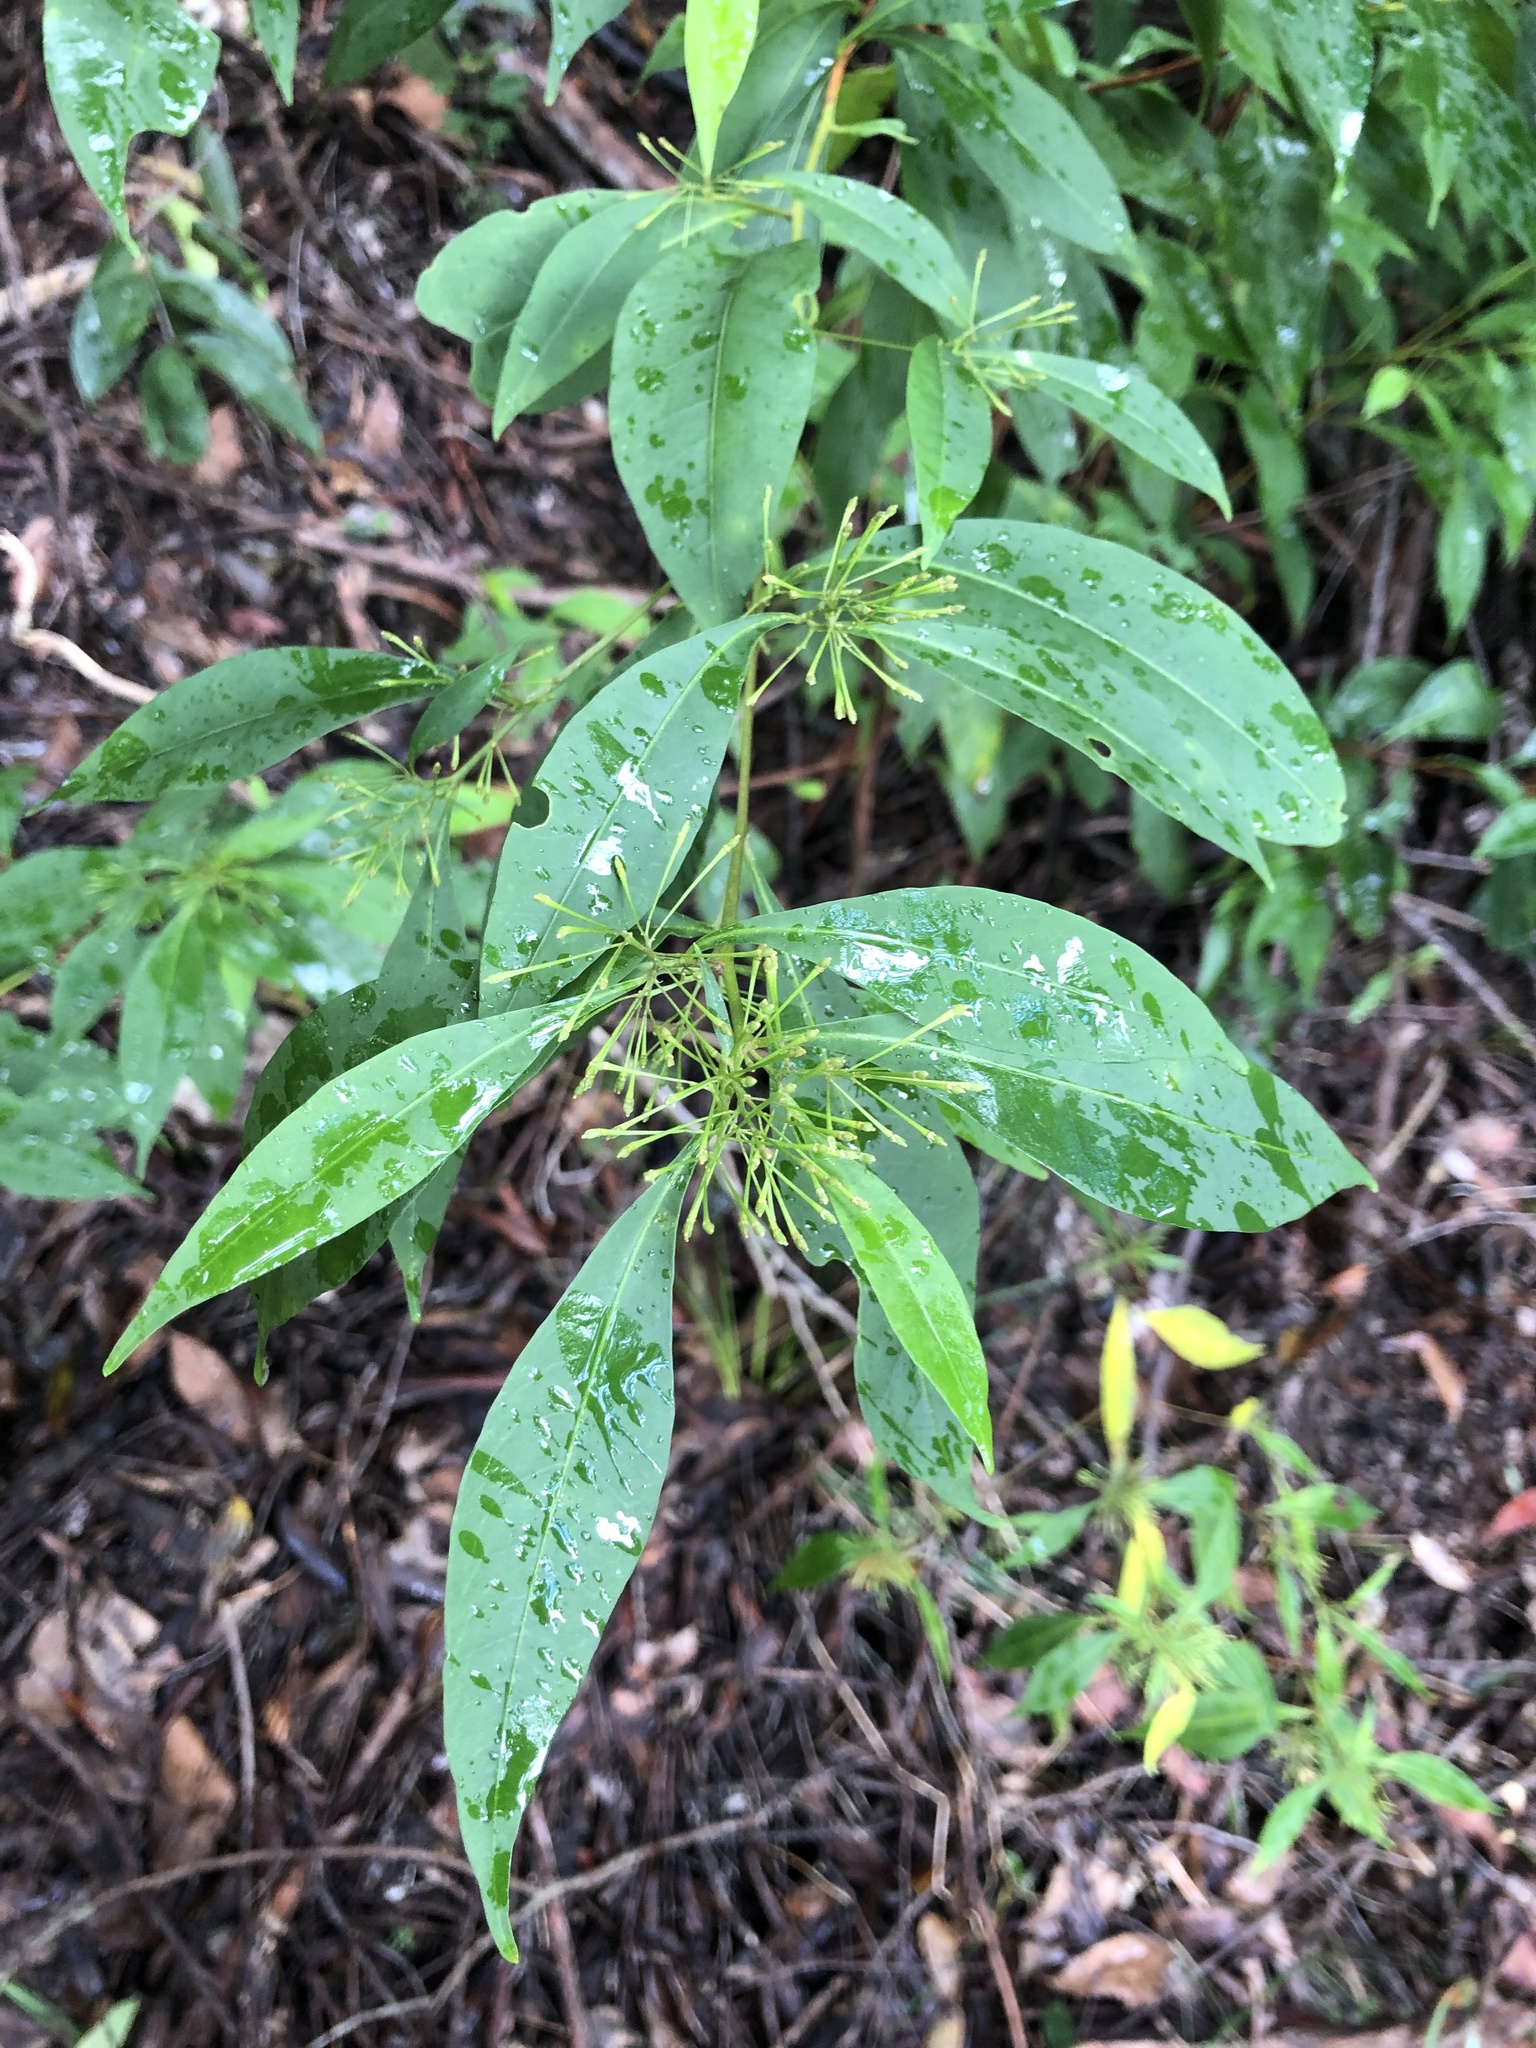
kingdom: Plantae
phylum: Tracheophyta
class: Magnoliopsida
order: Sapindales
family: Sapindaceae
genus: Dodonaea
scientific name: Dodonaea triquetra
